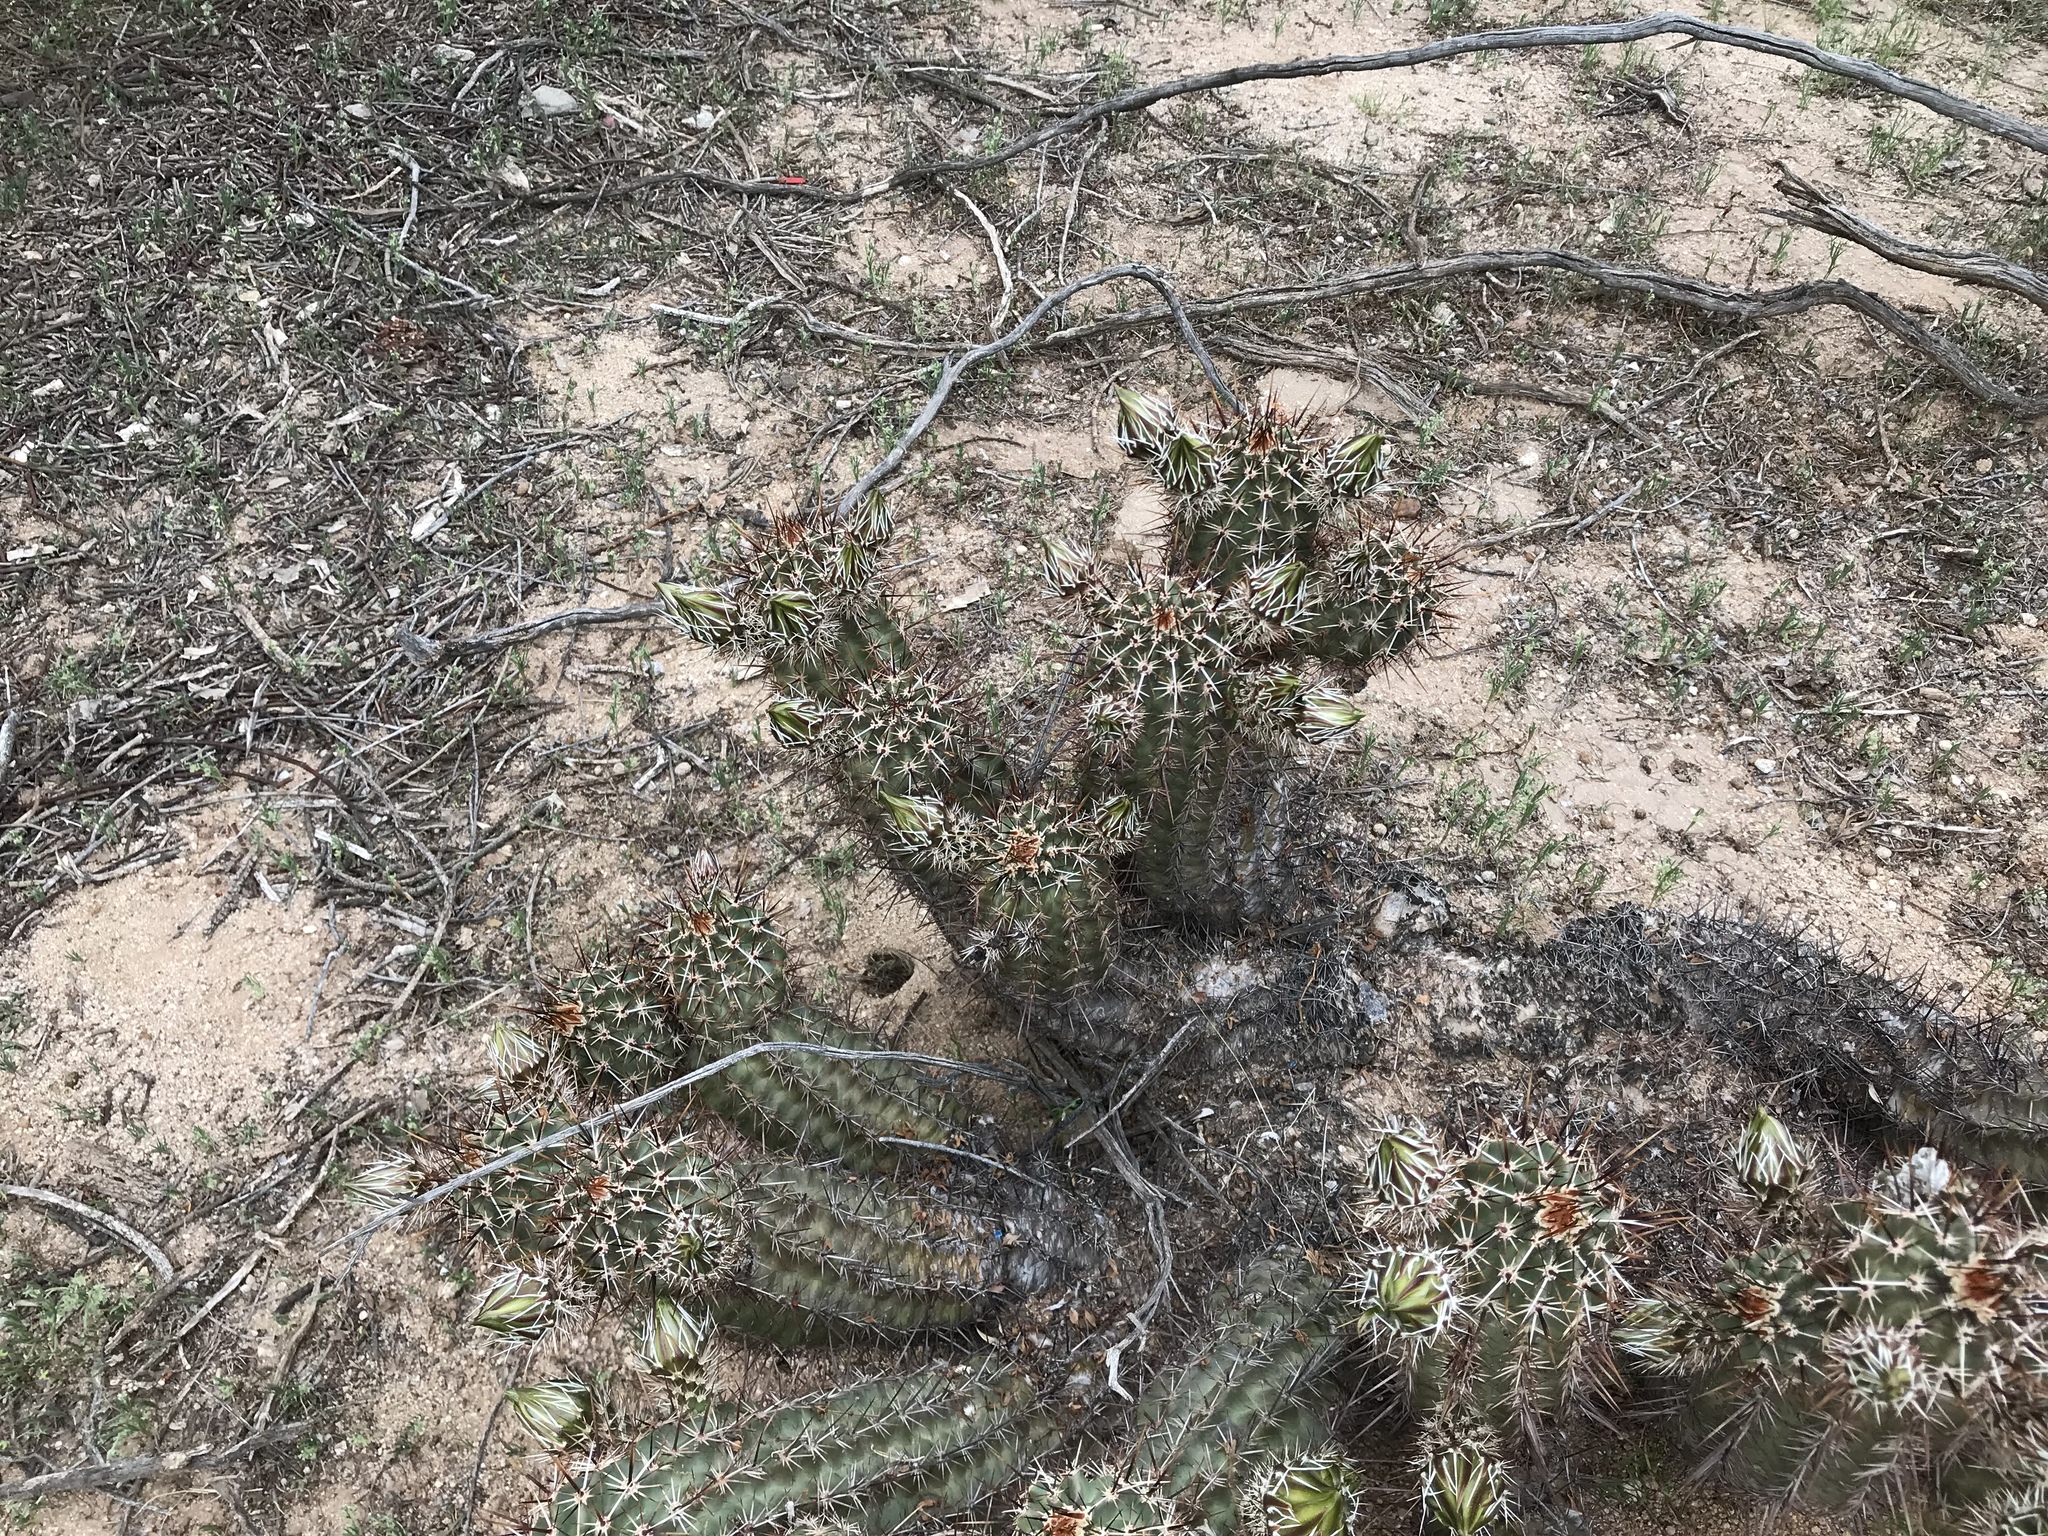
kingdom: Plantae
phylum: Tracheophyta
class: Magnoliopsida
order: Caryophyllales
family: Cactaceae
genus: Echinocereus
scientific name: Echinocereus fasciculatus
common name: Bundle hedgehog
